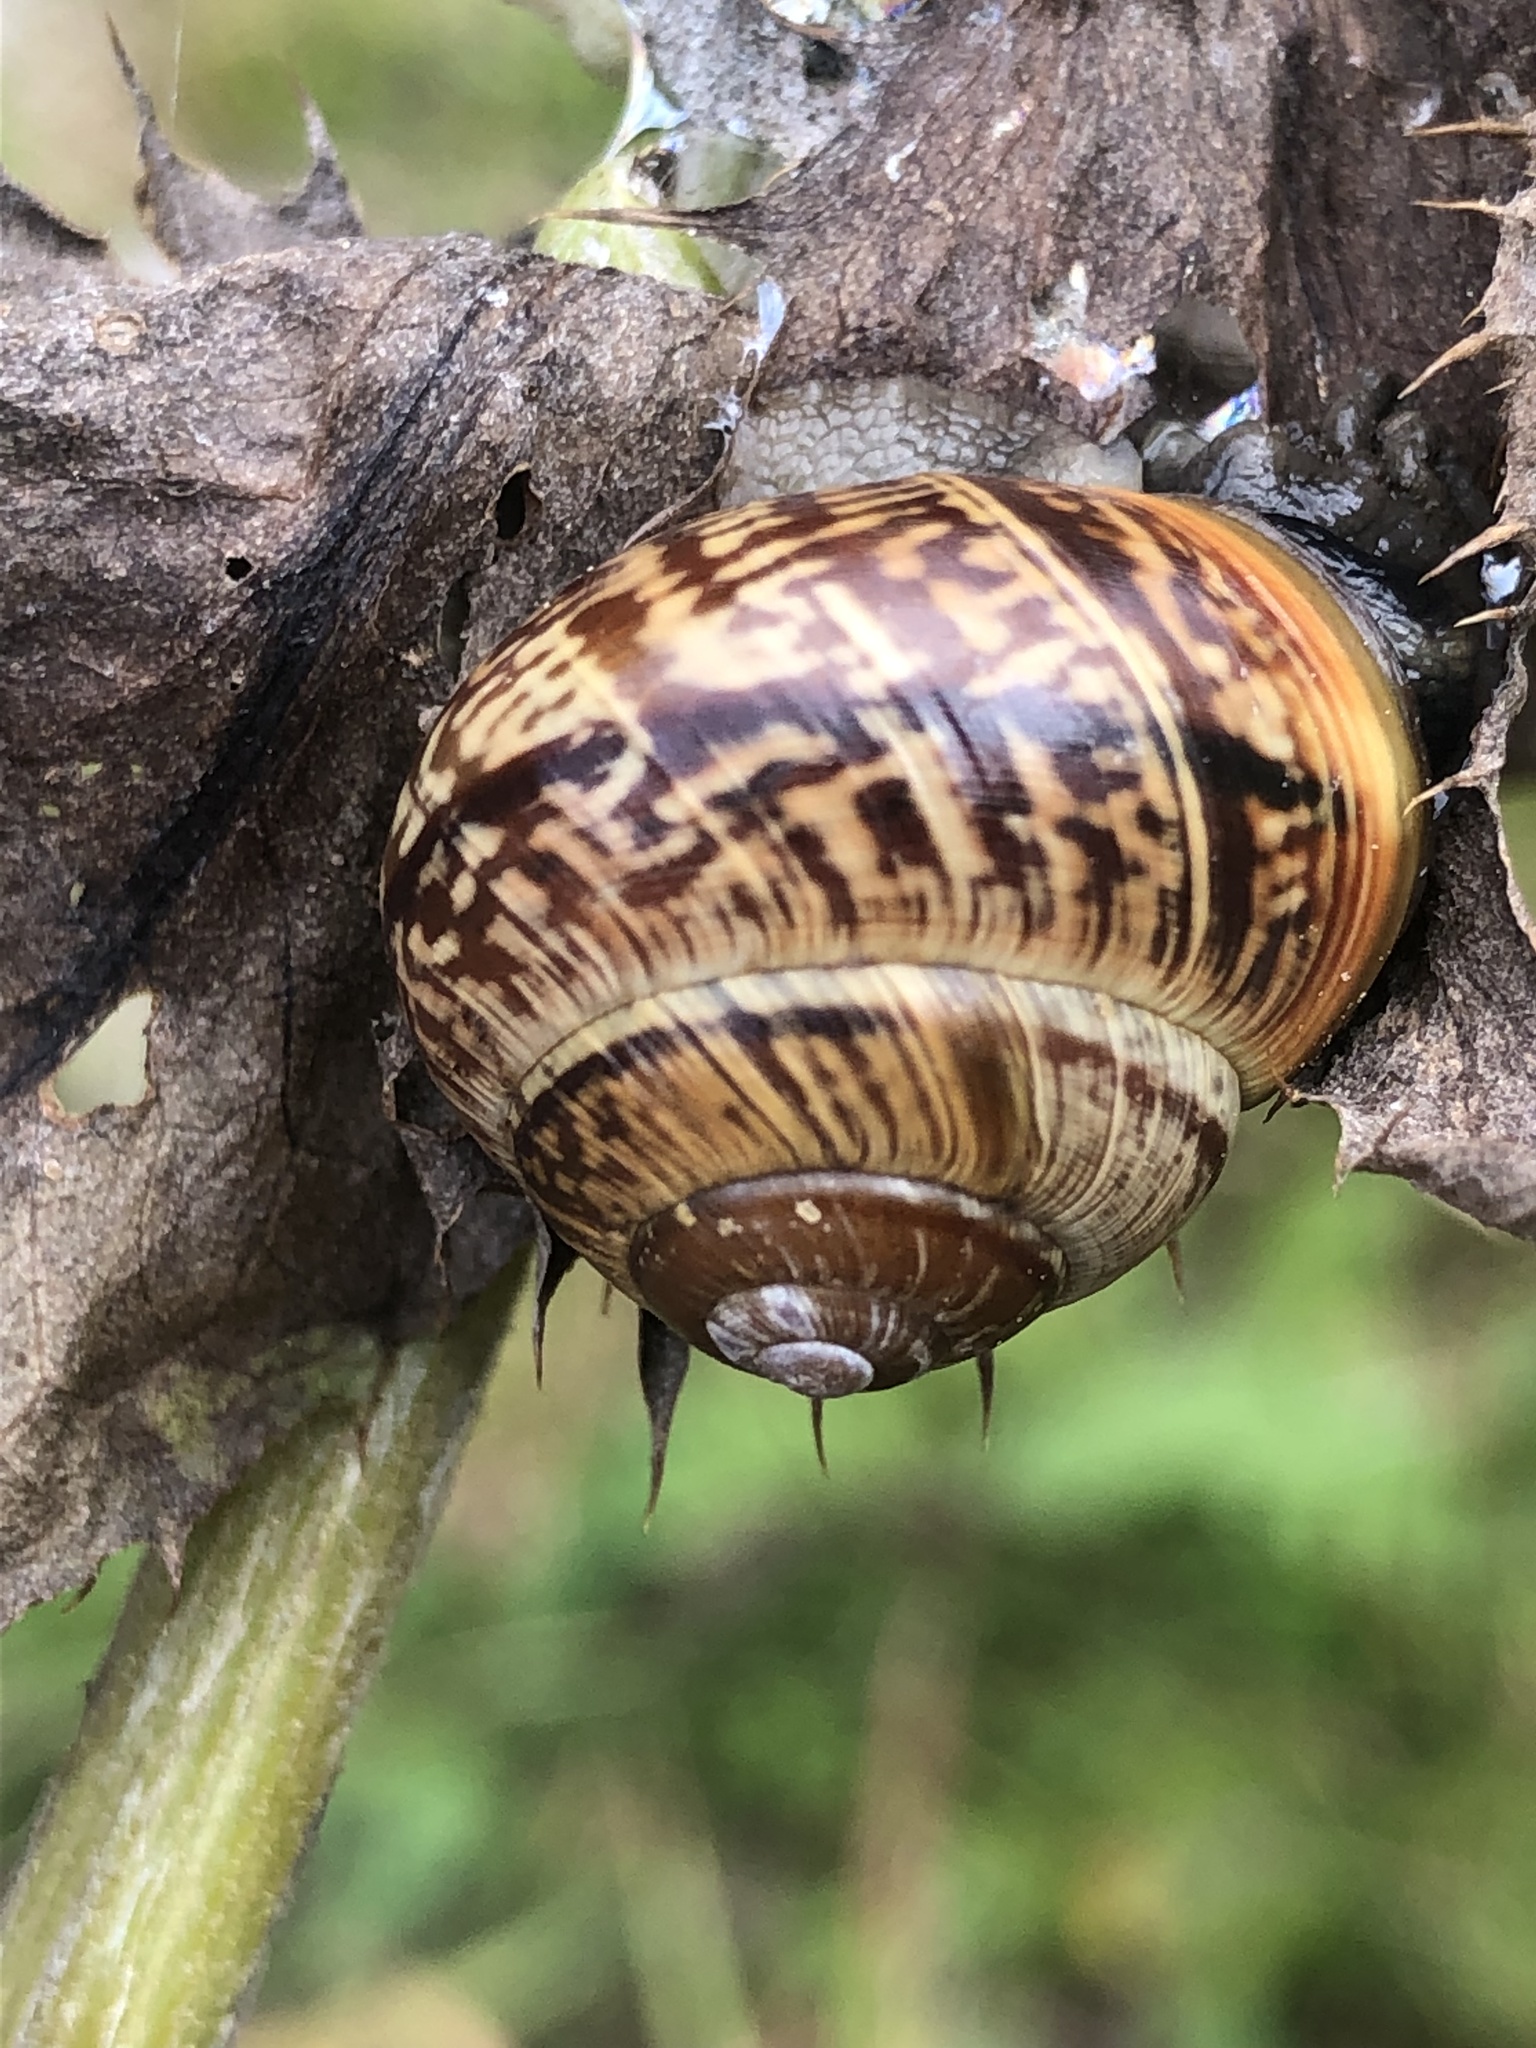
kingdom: Animalia
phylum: Mollusca
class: Gastropoda
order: Stylommatophora
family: Helicidae
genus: Arianta
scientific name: Arianta arbustorum
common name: Copse snail
